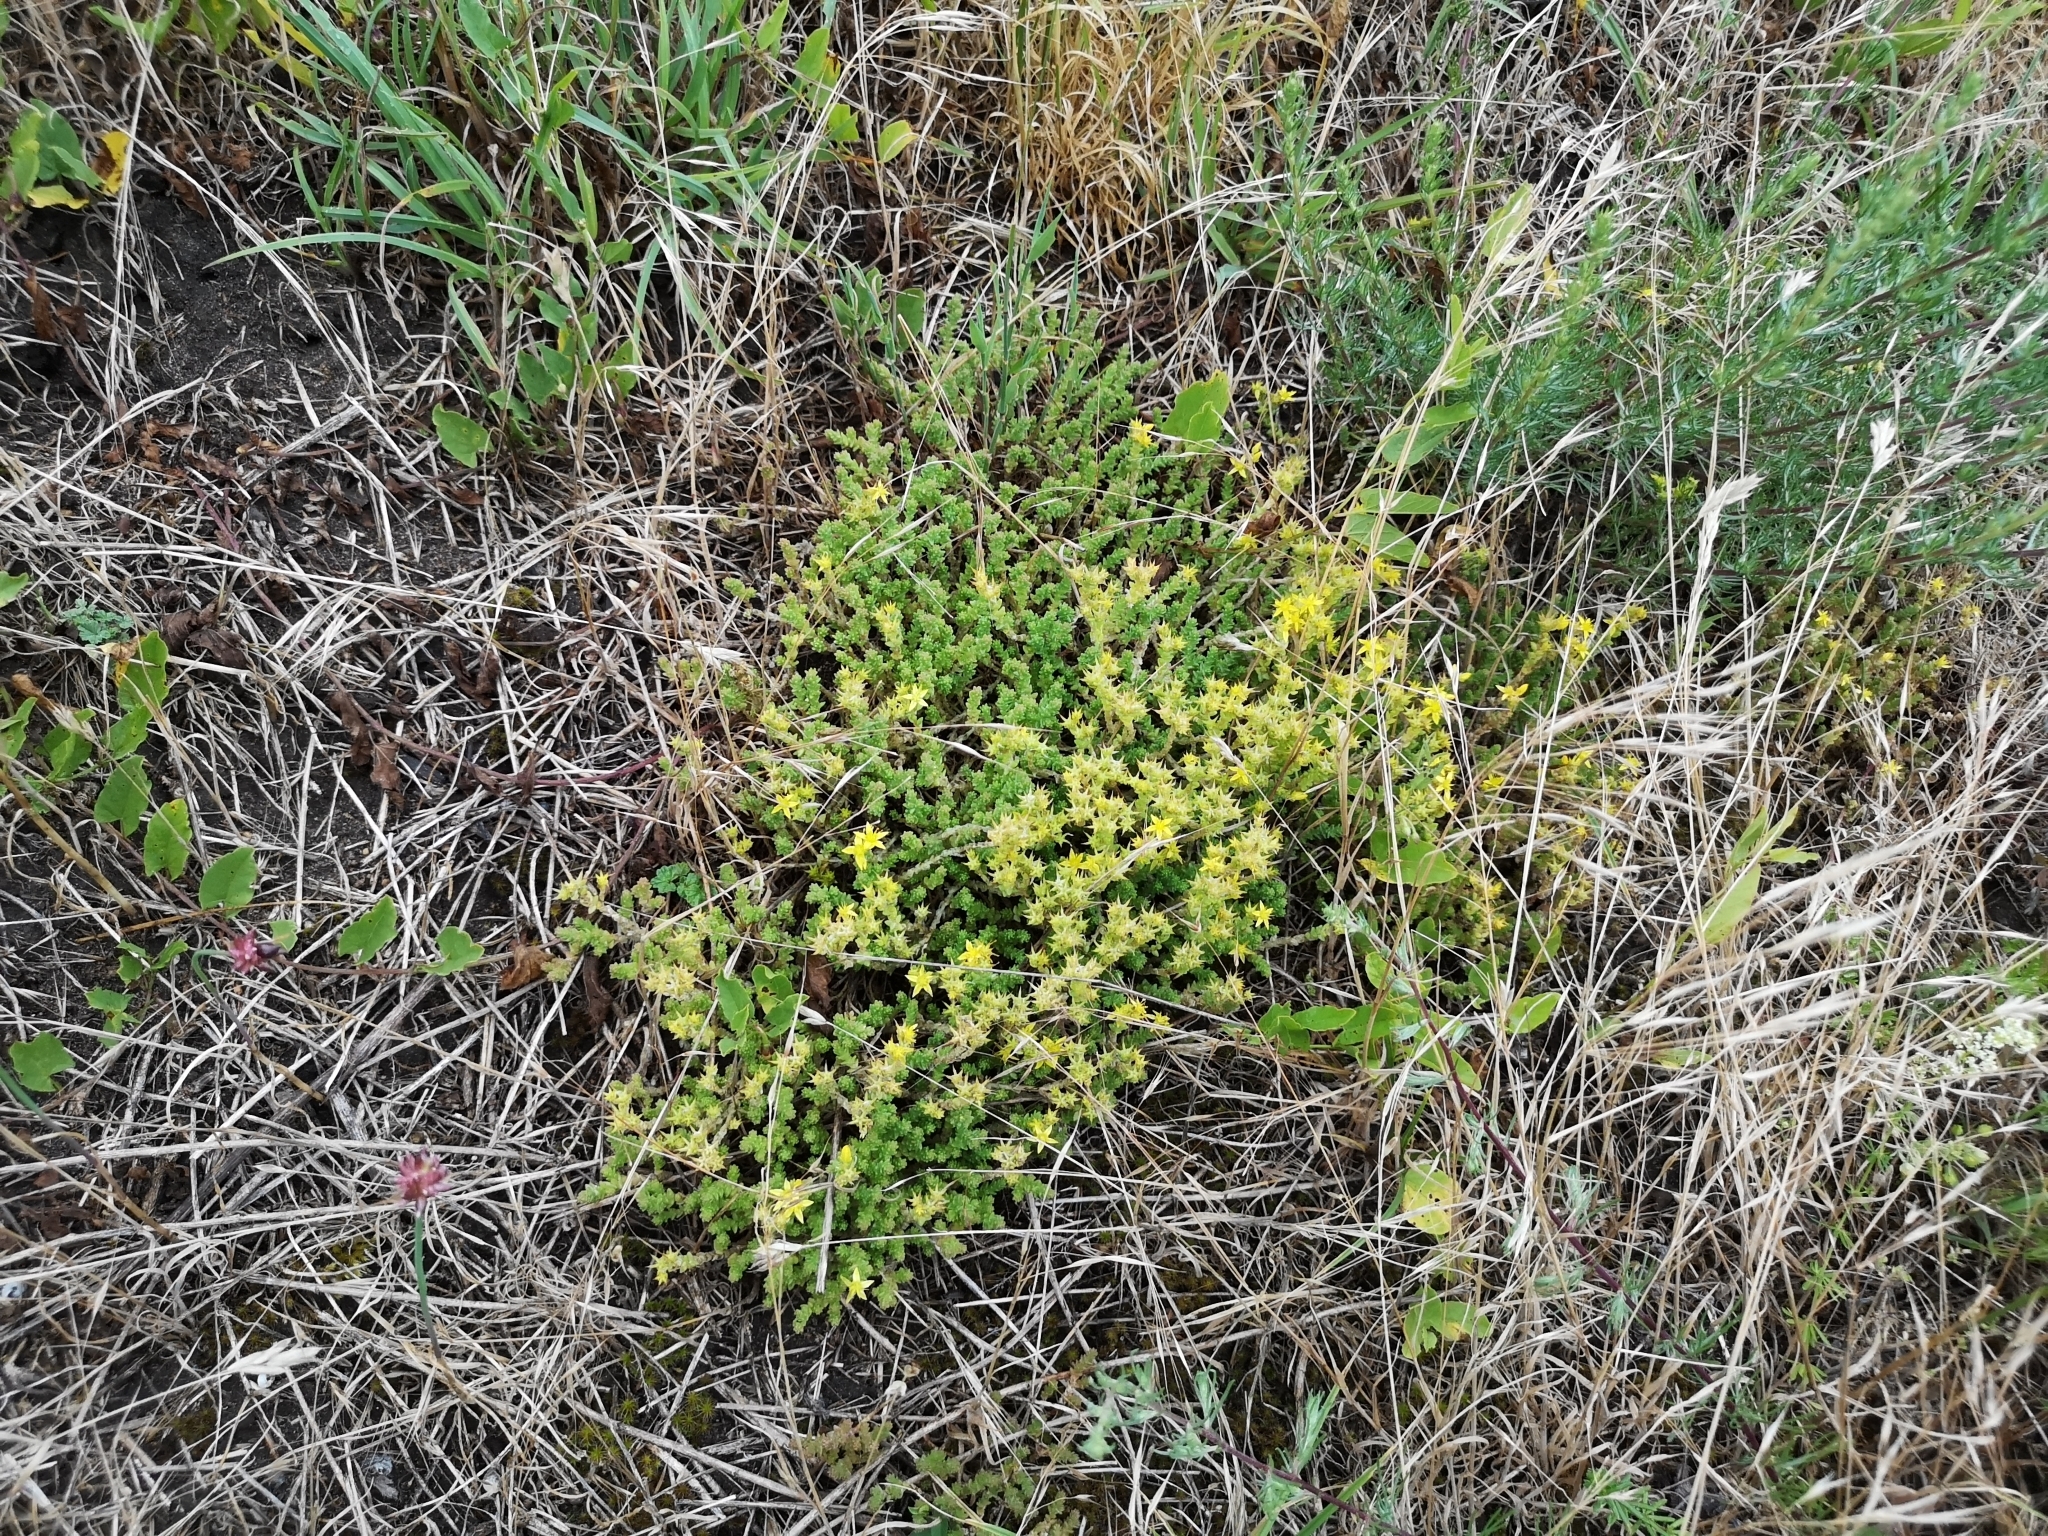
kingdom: Plantae
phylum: Tracheophyta
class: Magnoliopsida
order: Saxifragales
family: Crassulaceae
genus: Sedum
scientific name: Sedum acre
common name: Biting stonecrop
